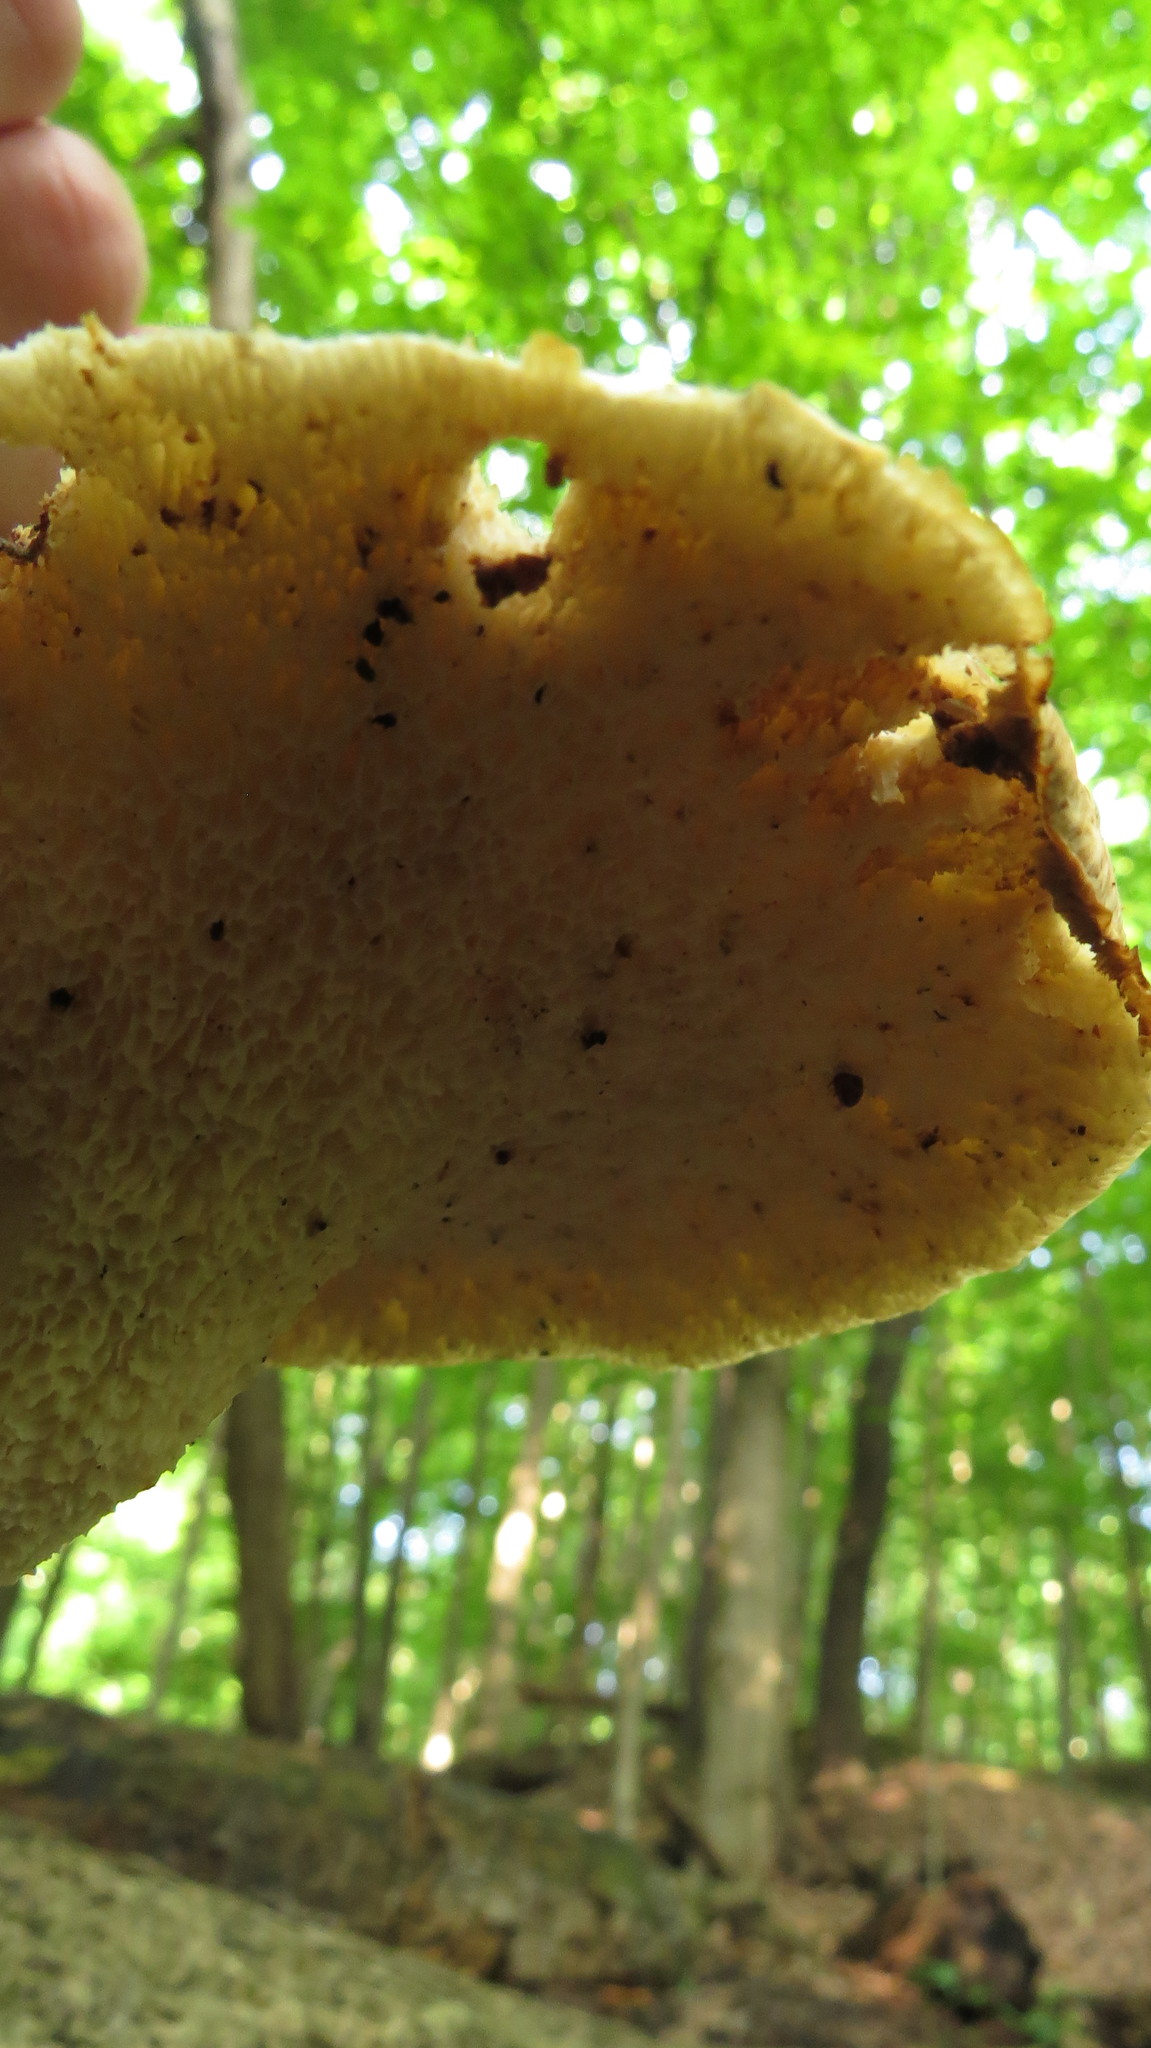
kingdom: Fungi
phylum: Basidiomycota
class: Agaricomycetes
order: Polyporales
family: Polyporaceae
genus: Cerioporus
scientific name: Cerioporus squamosus
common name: Dryad's saddle
